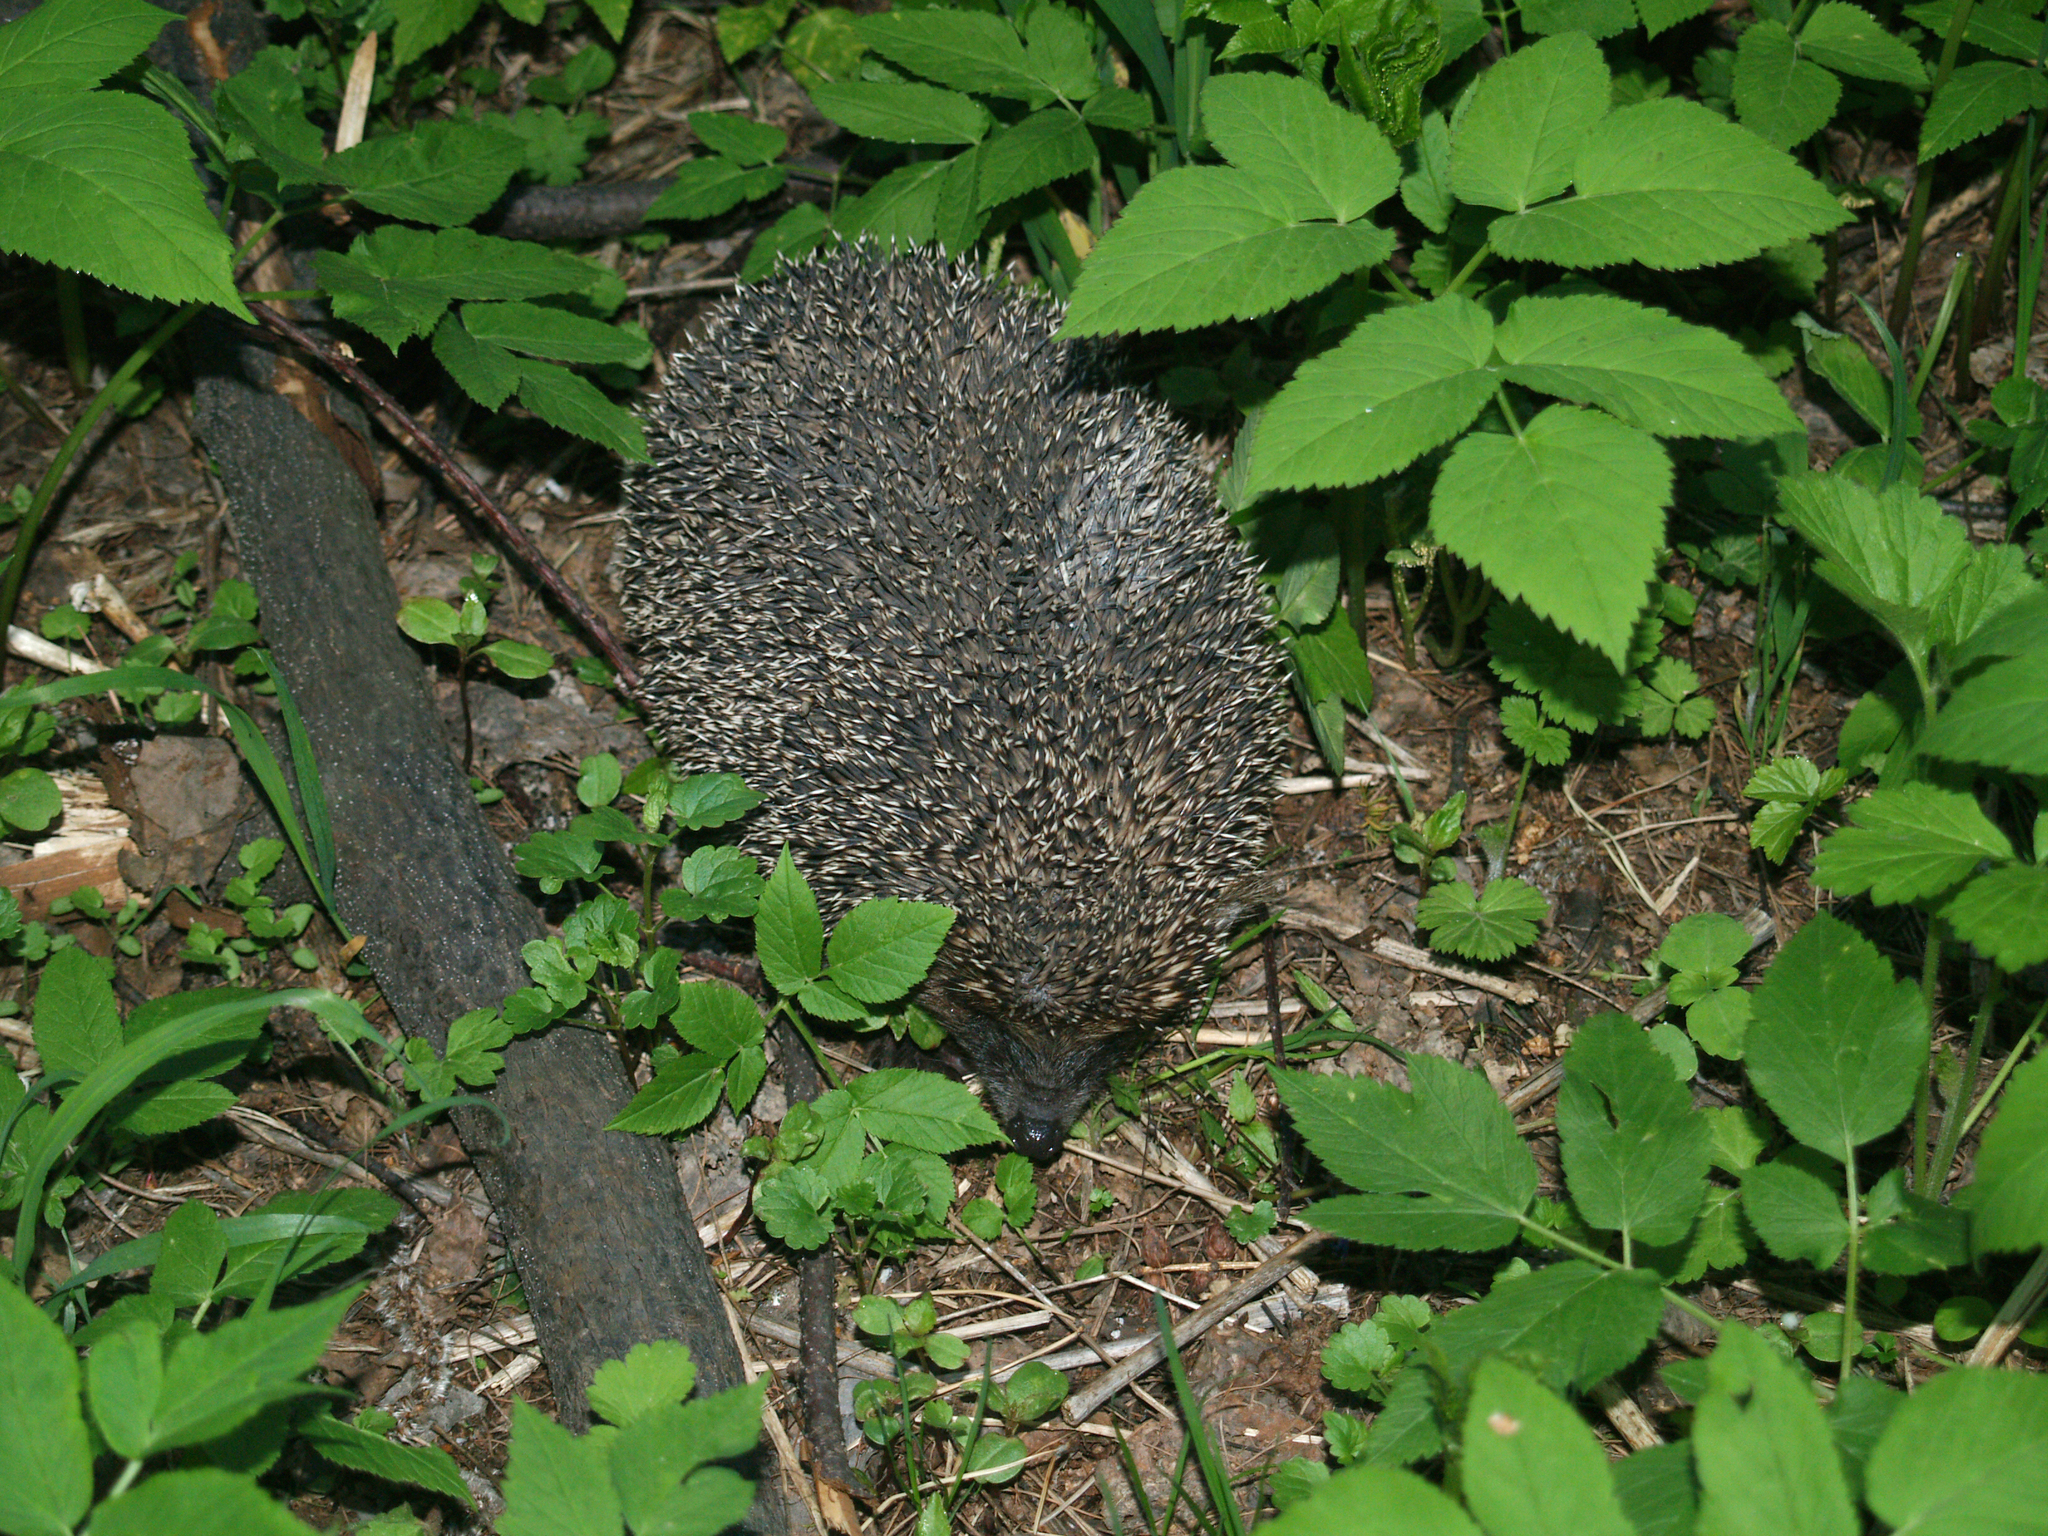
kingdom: Animalia
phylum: Chordata
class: Mammalia
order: Erinaceomorpha
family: Erinaceidae
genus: Erinaceus
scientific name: Erinaceus roumanicus
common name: Northern white-breasted hedgehog
